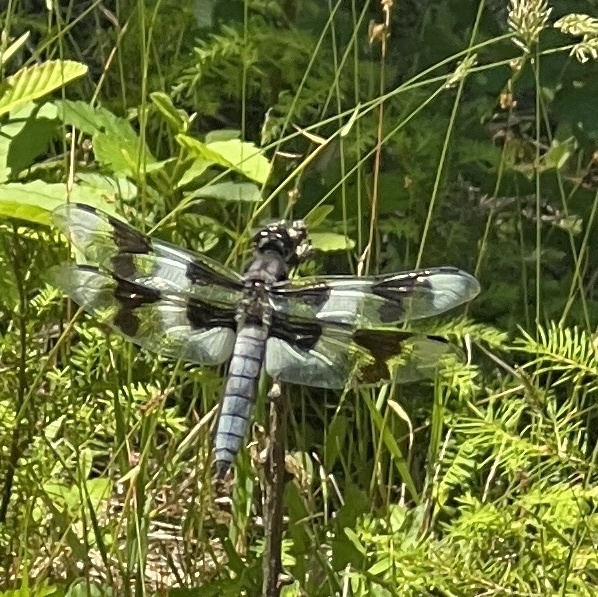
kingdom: Animalia
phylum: Arthropoda
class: Insecta
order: Odonata
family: Libellulidae
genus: Libellula
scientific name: Libellula forensis
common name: Eight-spotted skimmer
